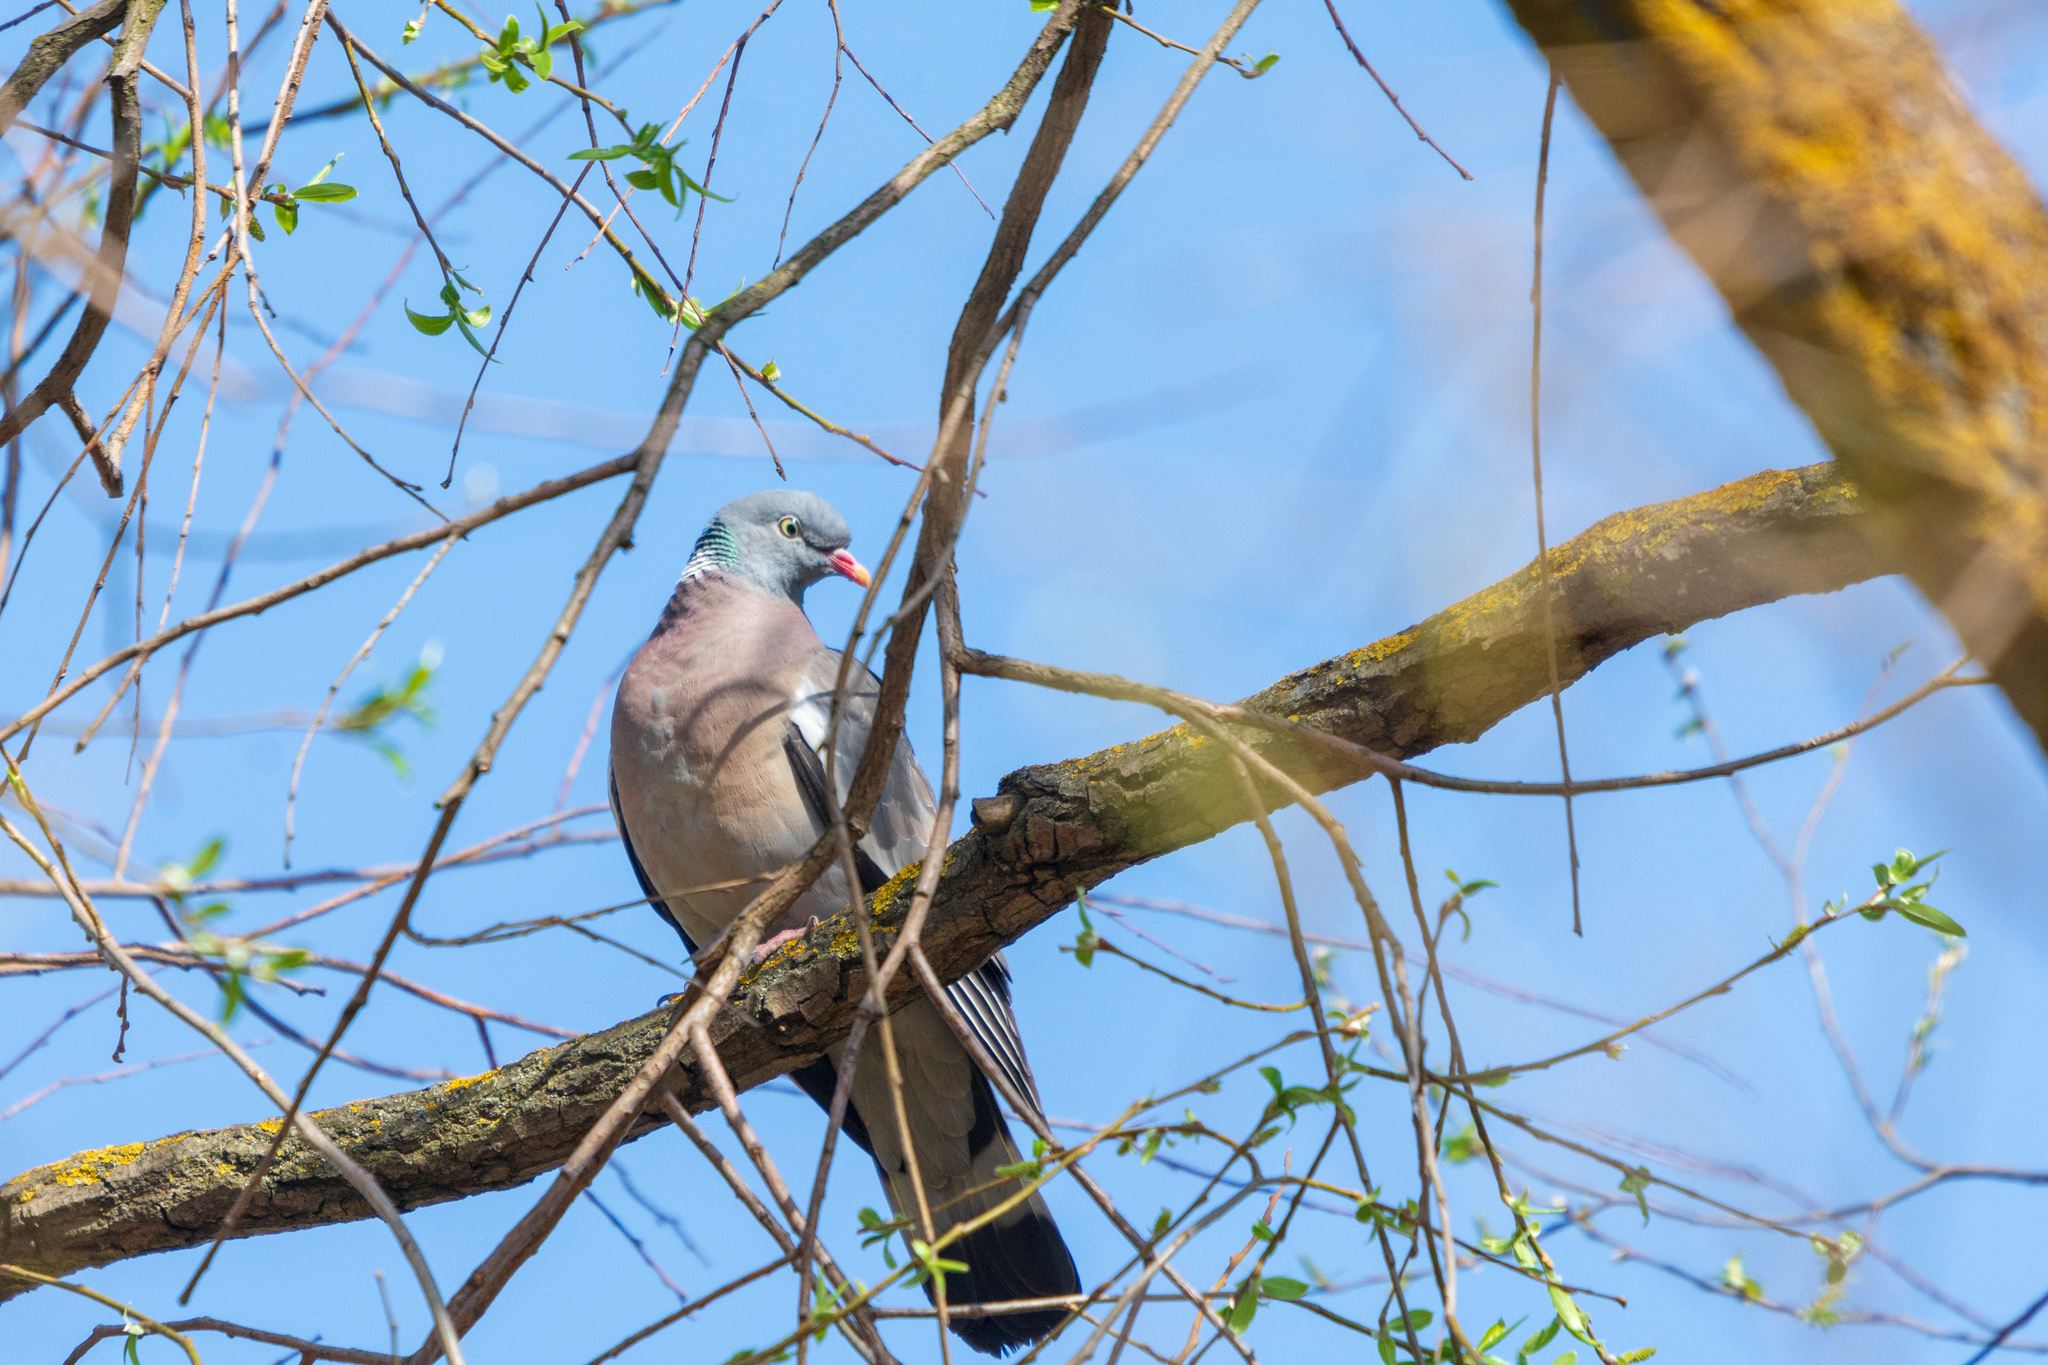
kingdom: Animalia
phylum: Chordata
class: Aves
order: Columbiformes
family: Columbidae
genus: Columba
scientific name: Columba palumbus
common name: Common wood pigeon
